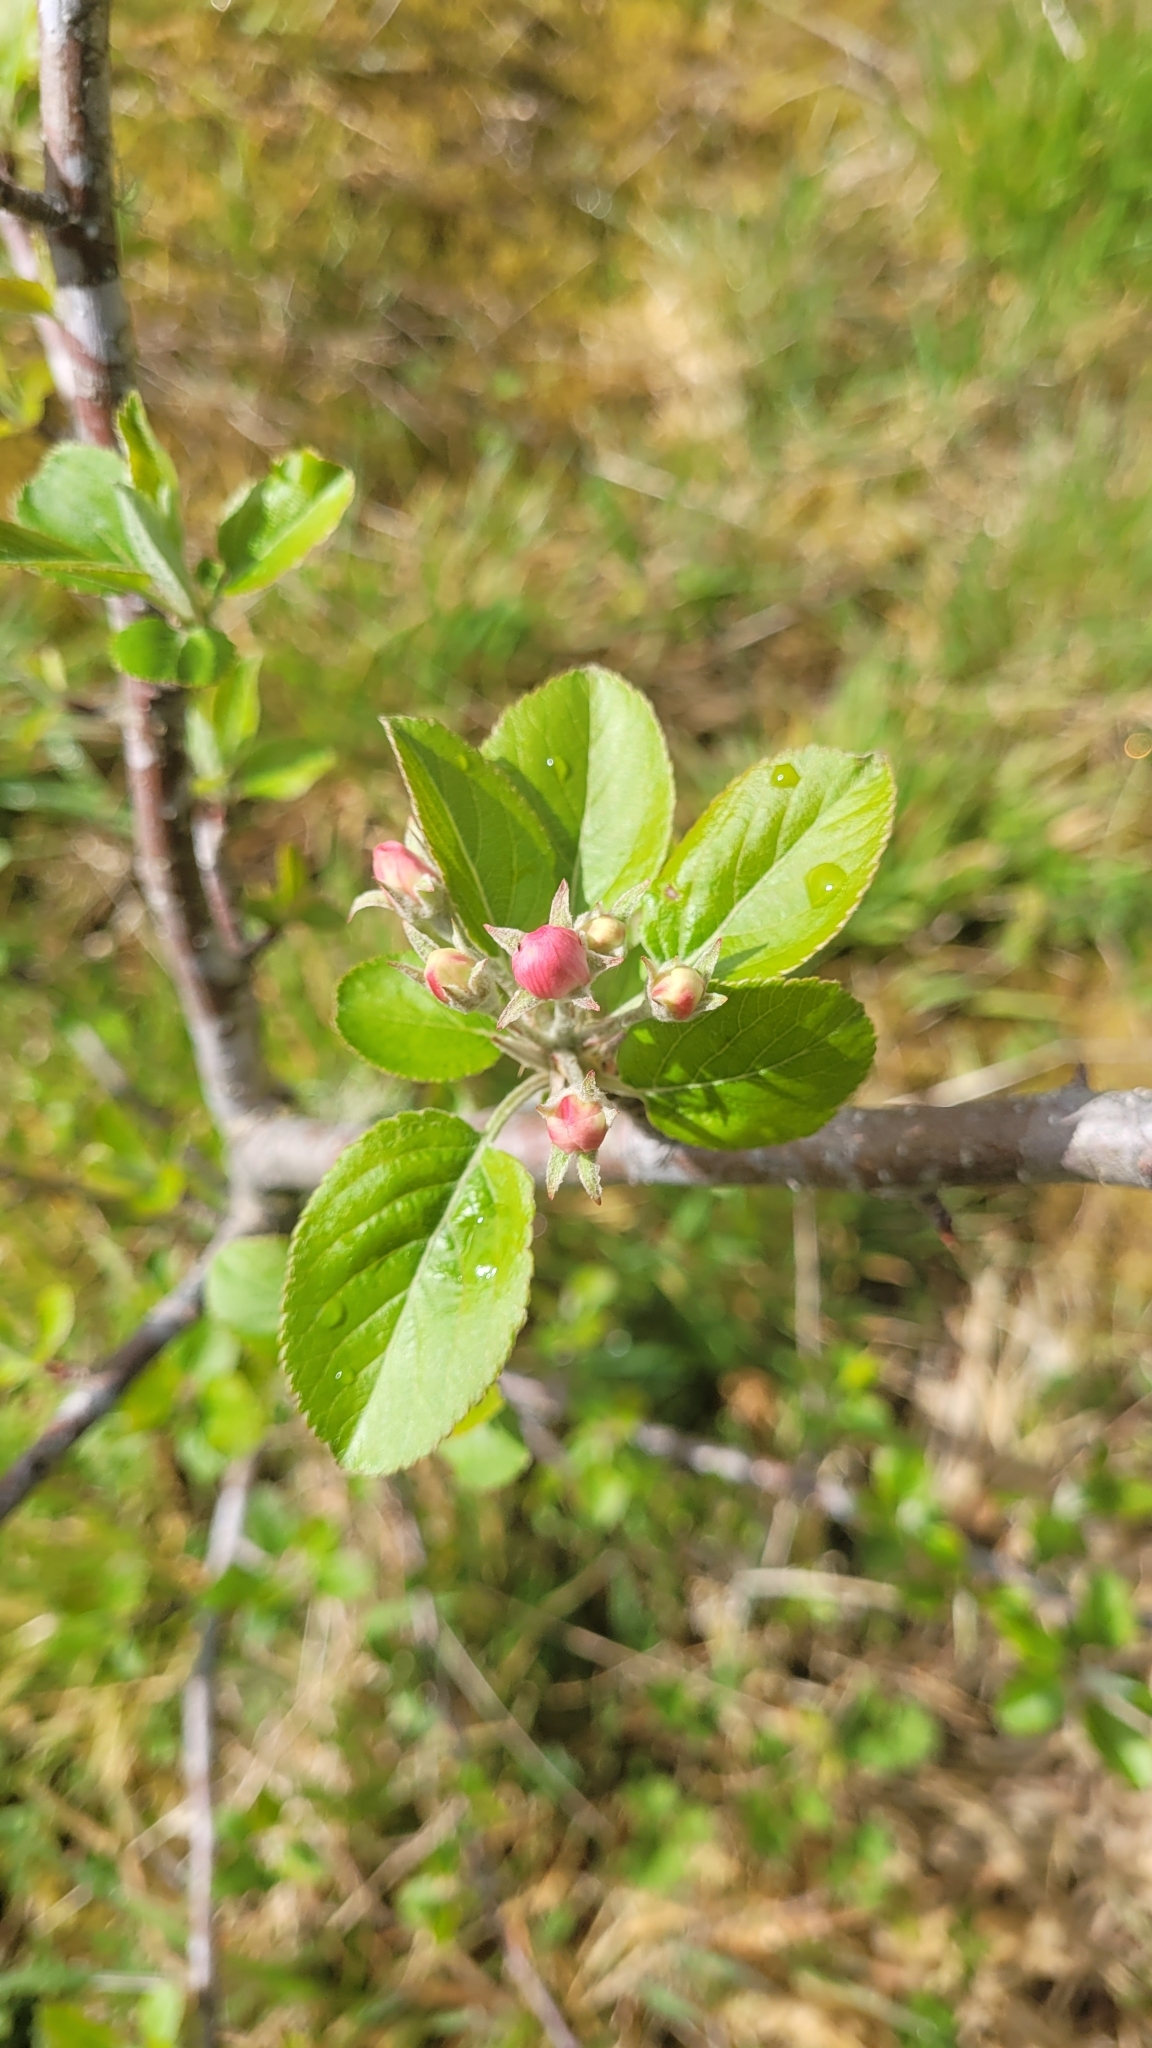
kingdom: Plantae
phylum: Tracheophyta
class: Magnoliopsida
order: Rosales
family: Rosaceae
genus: Malus
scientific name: Malus domestica
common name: Apple
